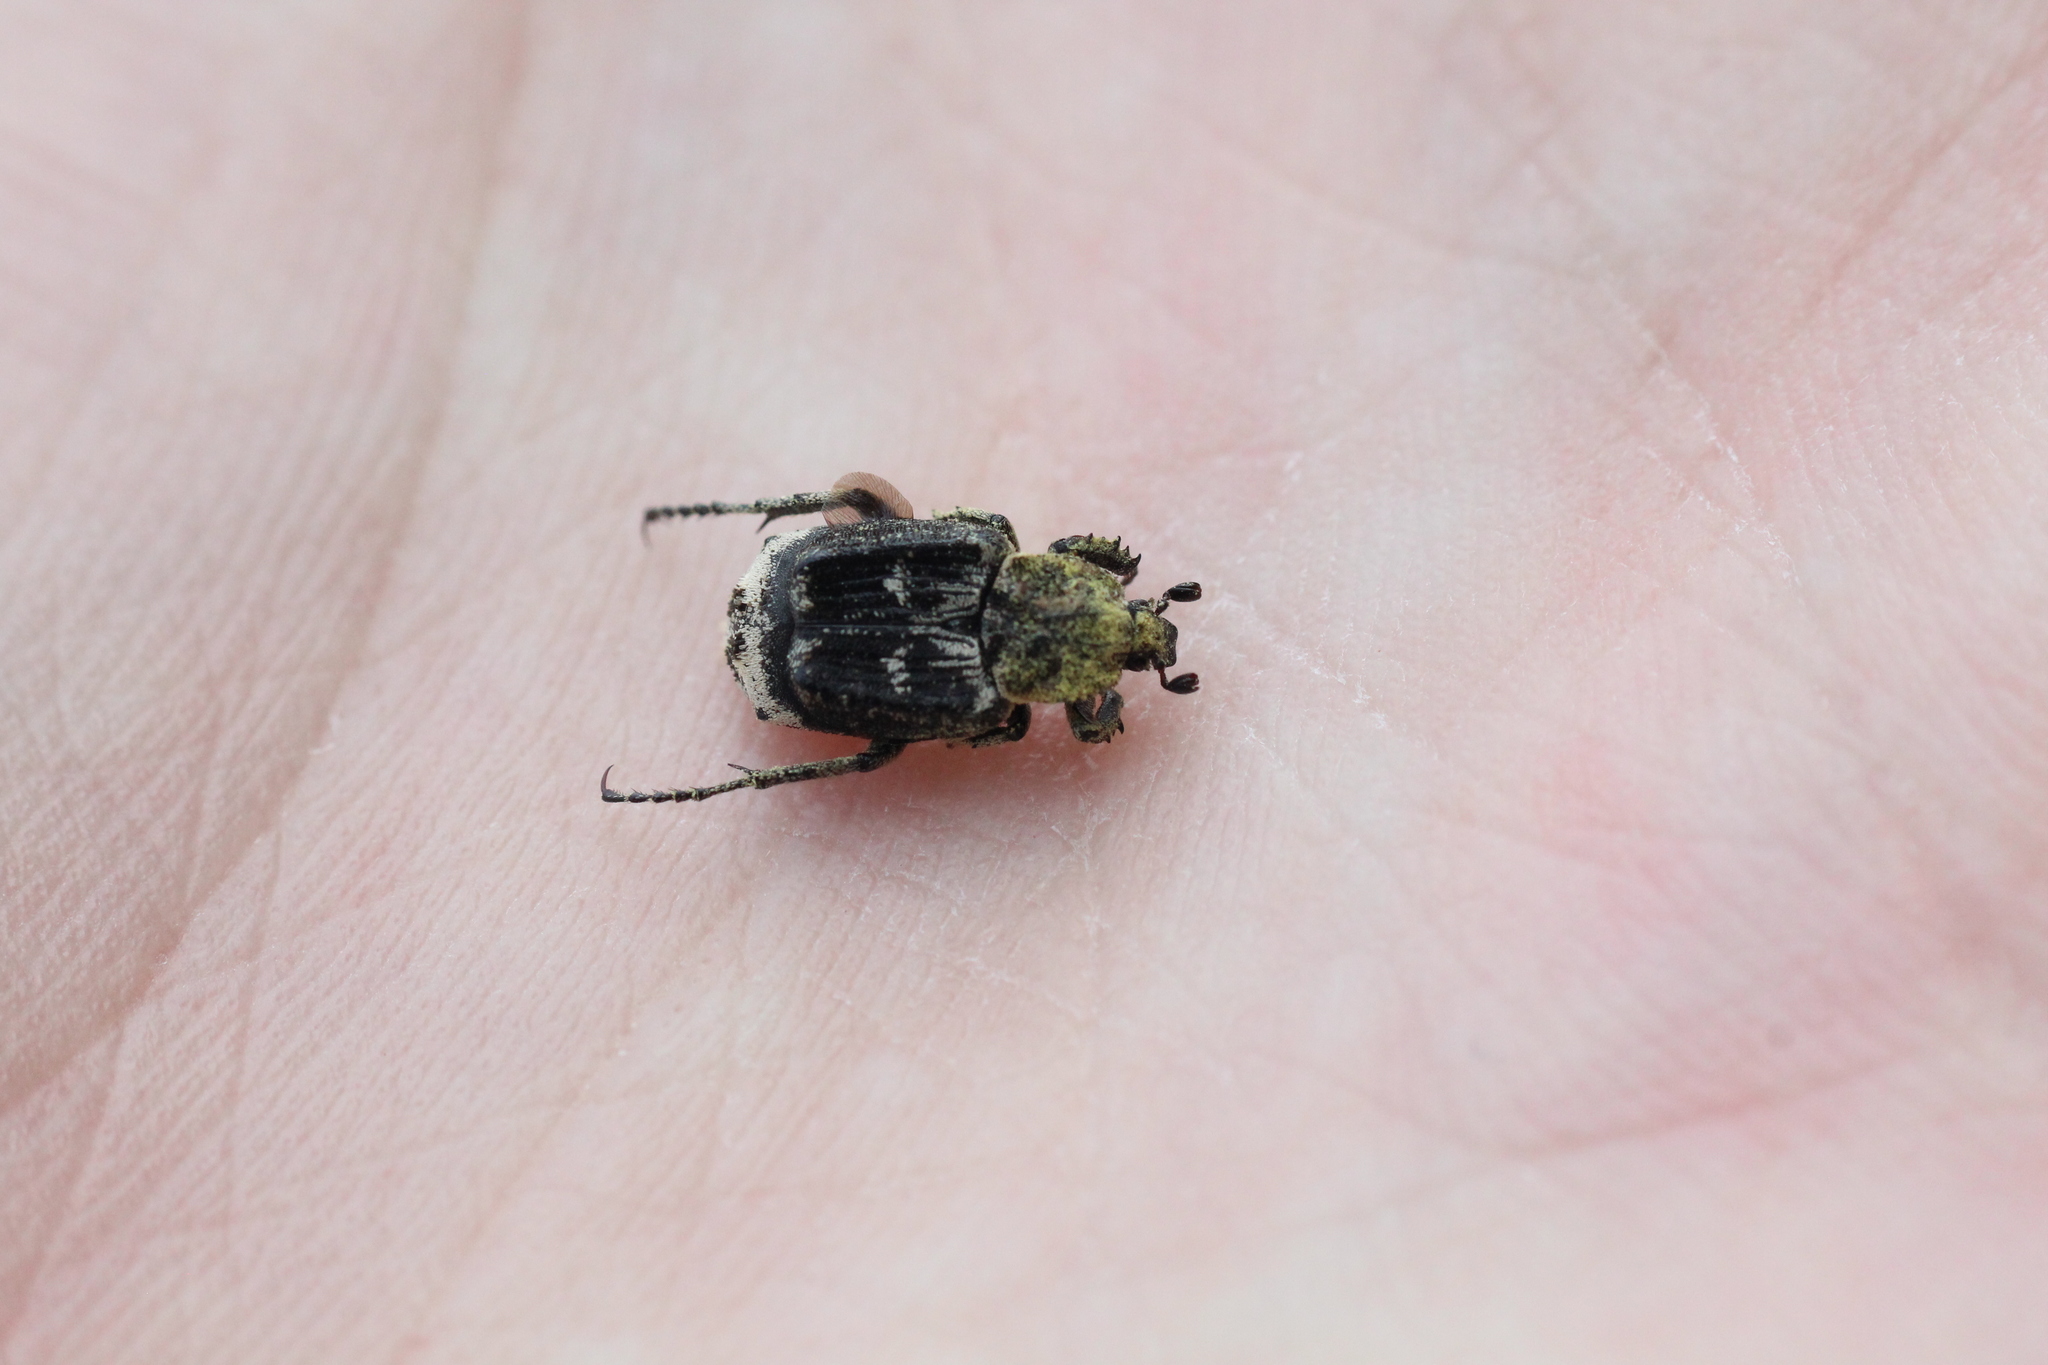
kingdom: Animalia
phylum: Arthropoda
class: Insecta
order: Coleoptera
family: Scarabaeidae
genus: Valgus
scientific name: Valgus hemipterus
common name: Bug flower chafer
